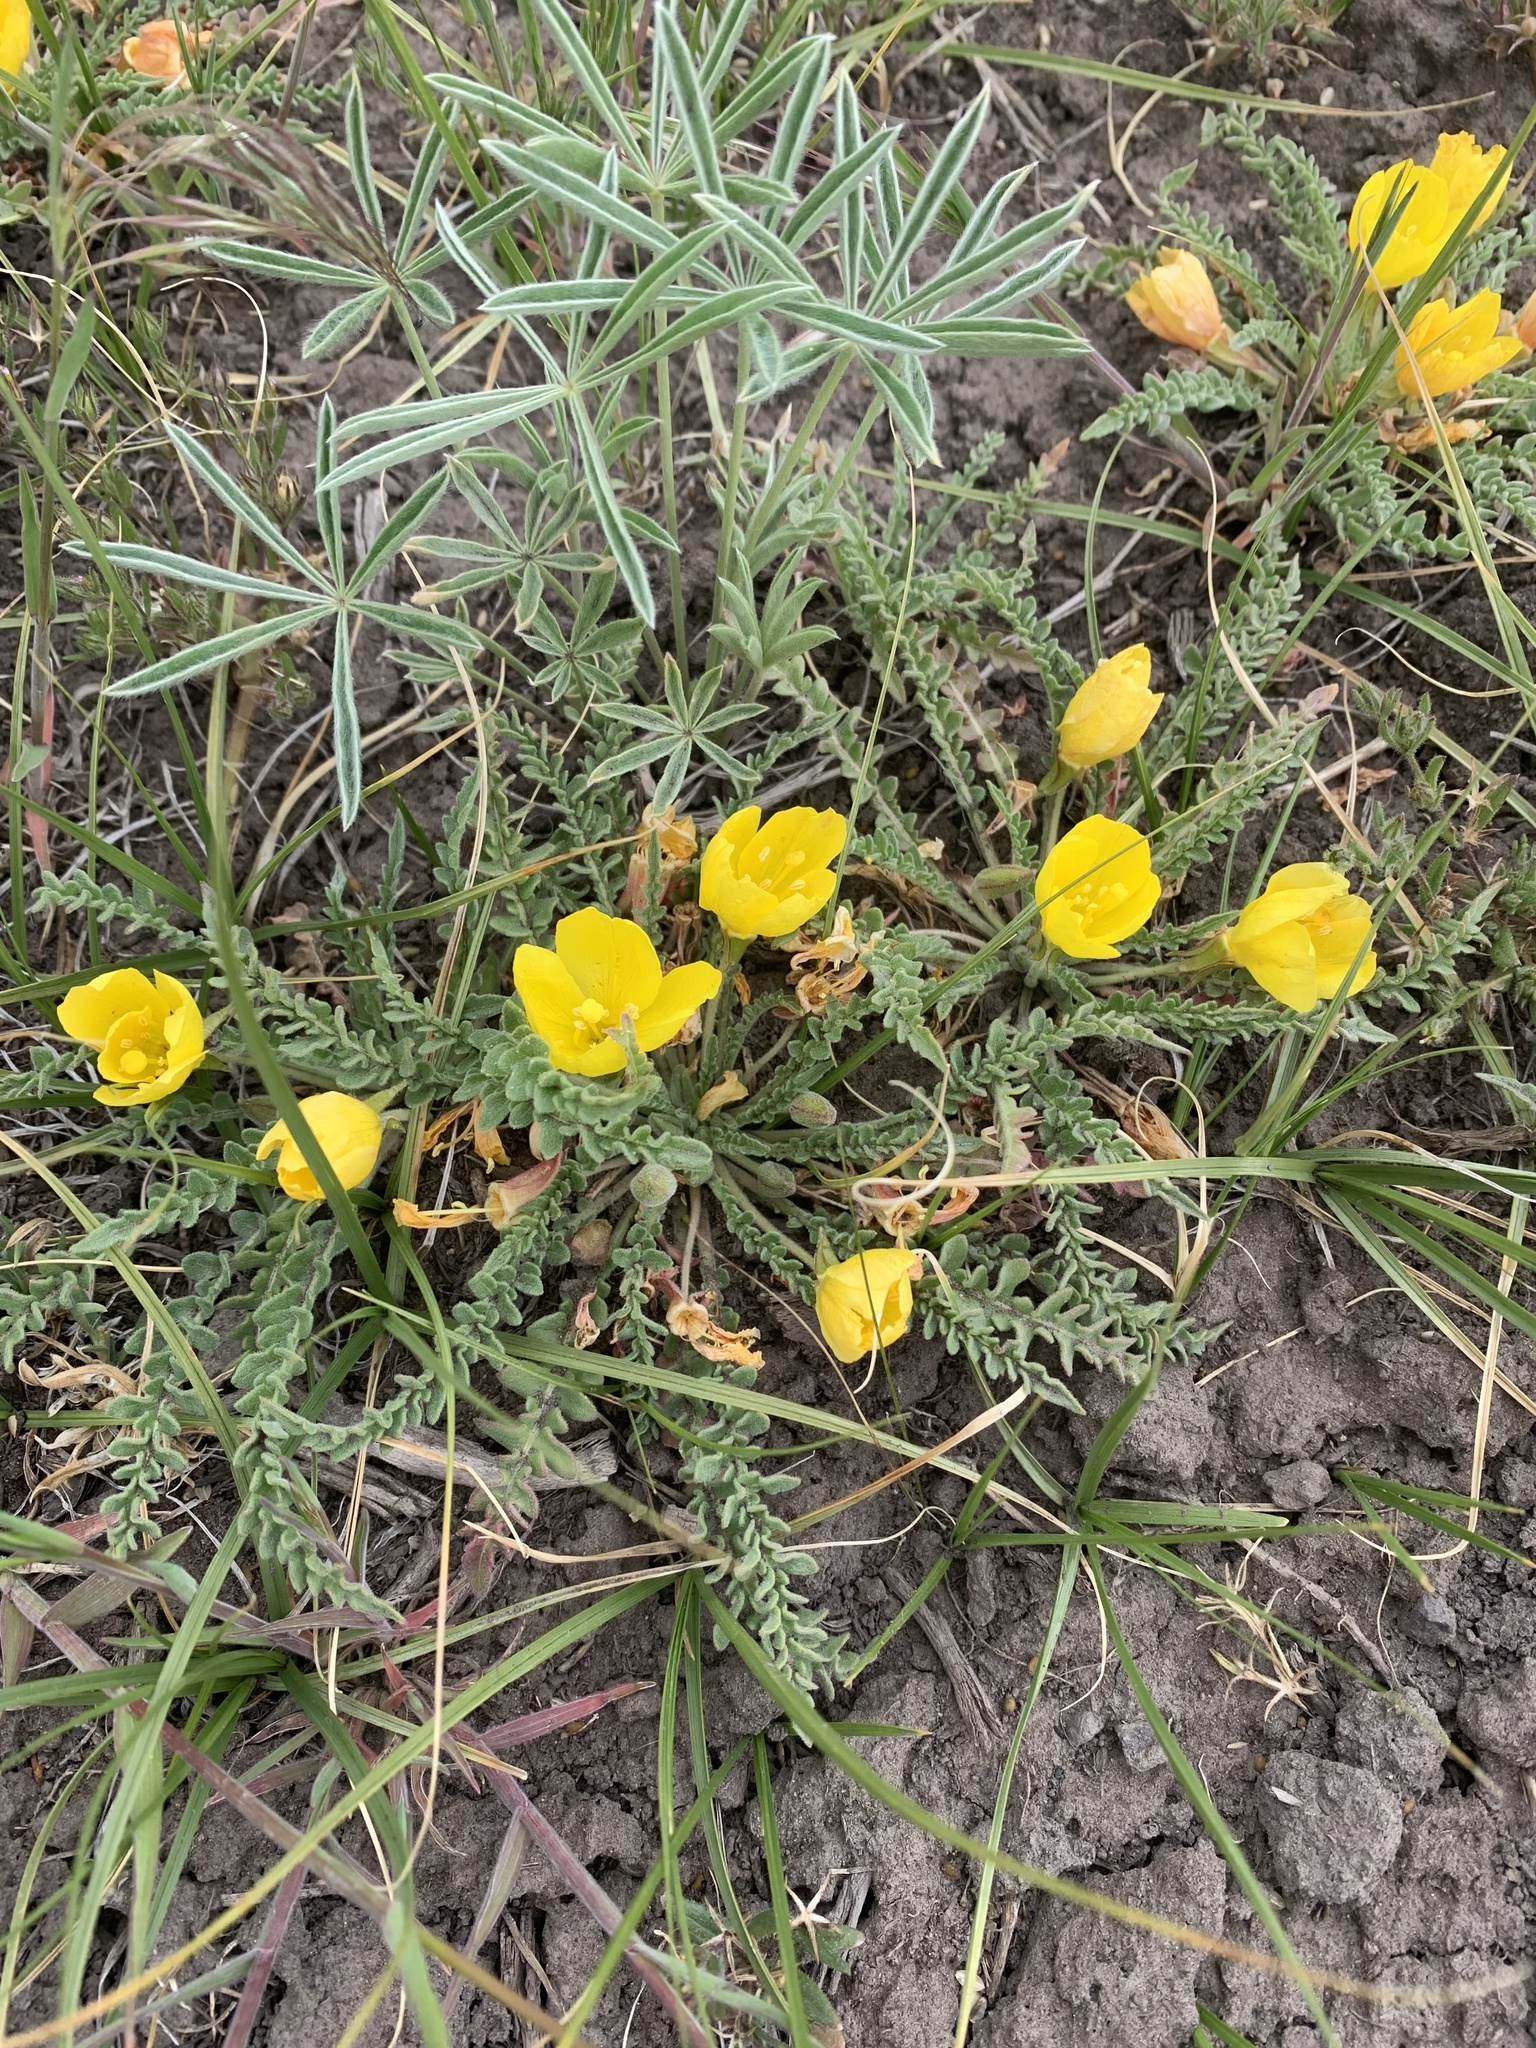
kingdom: Plantae
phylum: Tracheophyta
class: Magnoliopsida
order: Myrtales
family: Onagraceae
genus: Taraxia
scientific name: Taraxia tanacetifolia
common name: Tansyleaf evening primrose
